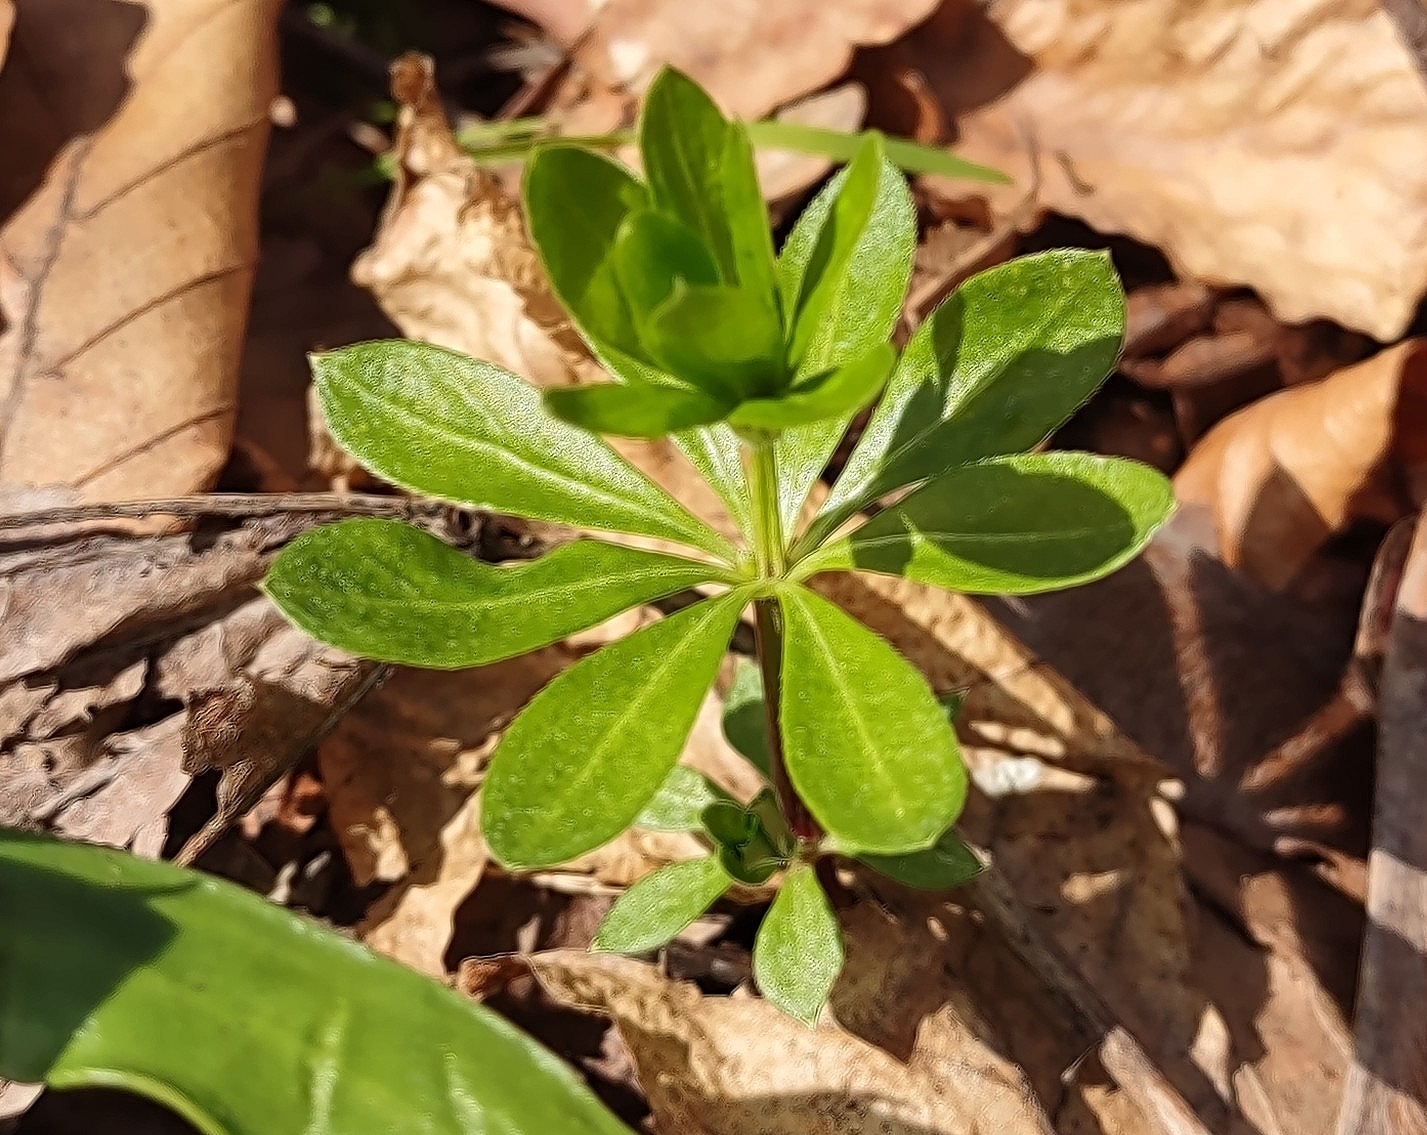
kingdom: Plantae
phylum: Tracheophyta
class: Magnoliopsida
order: Gentianales
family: Rubiaceae
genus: Galium
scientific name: Galium odoratum
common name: Sweet woodruff
